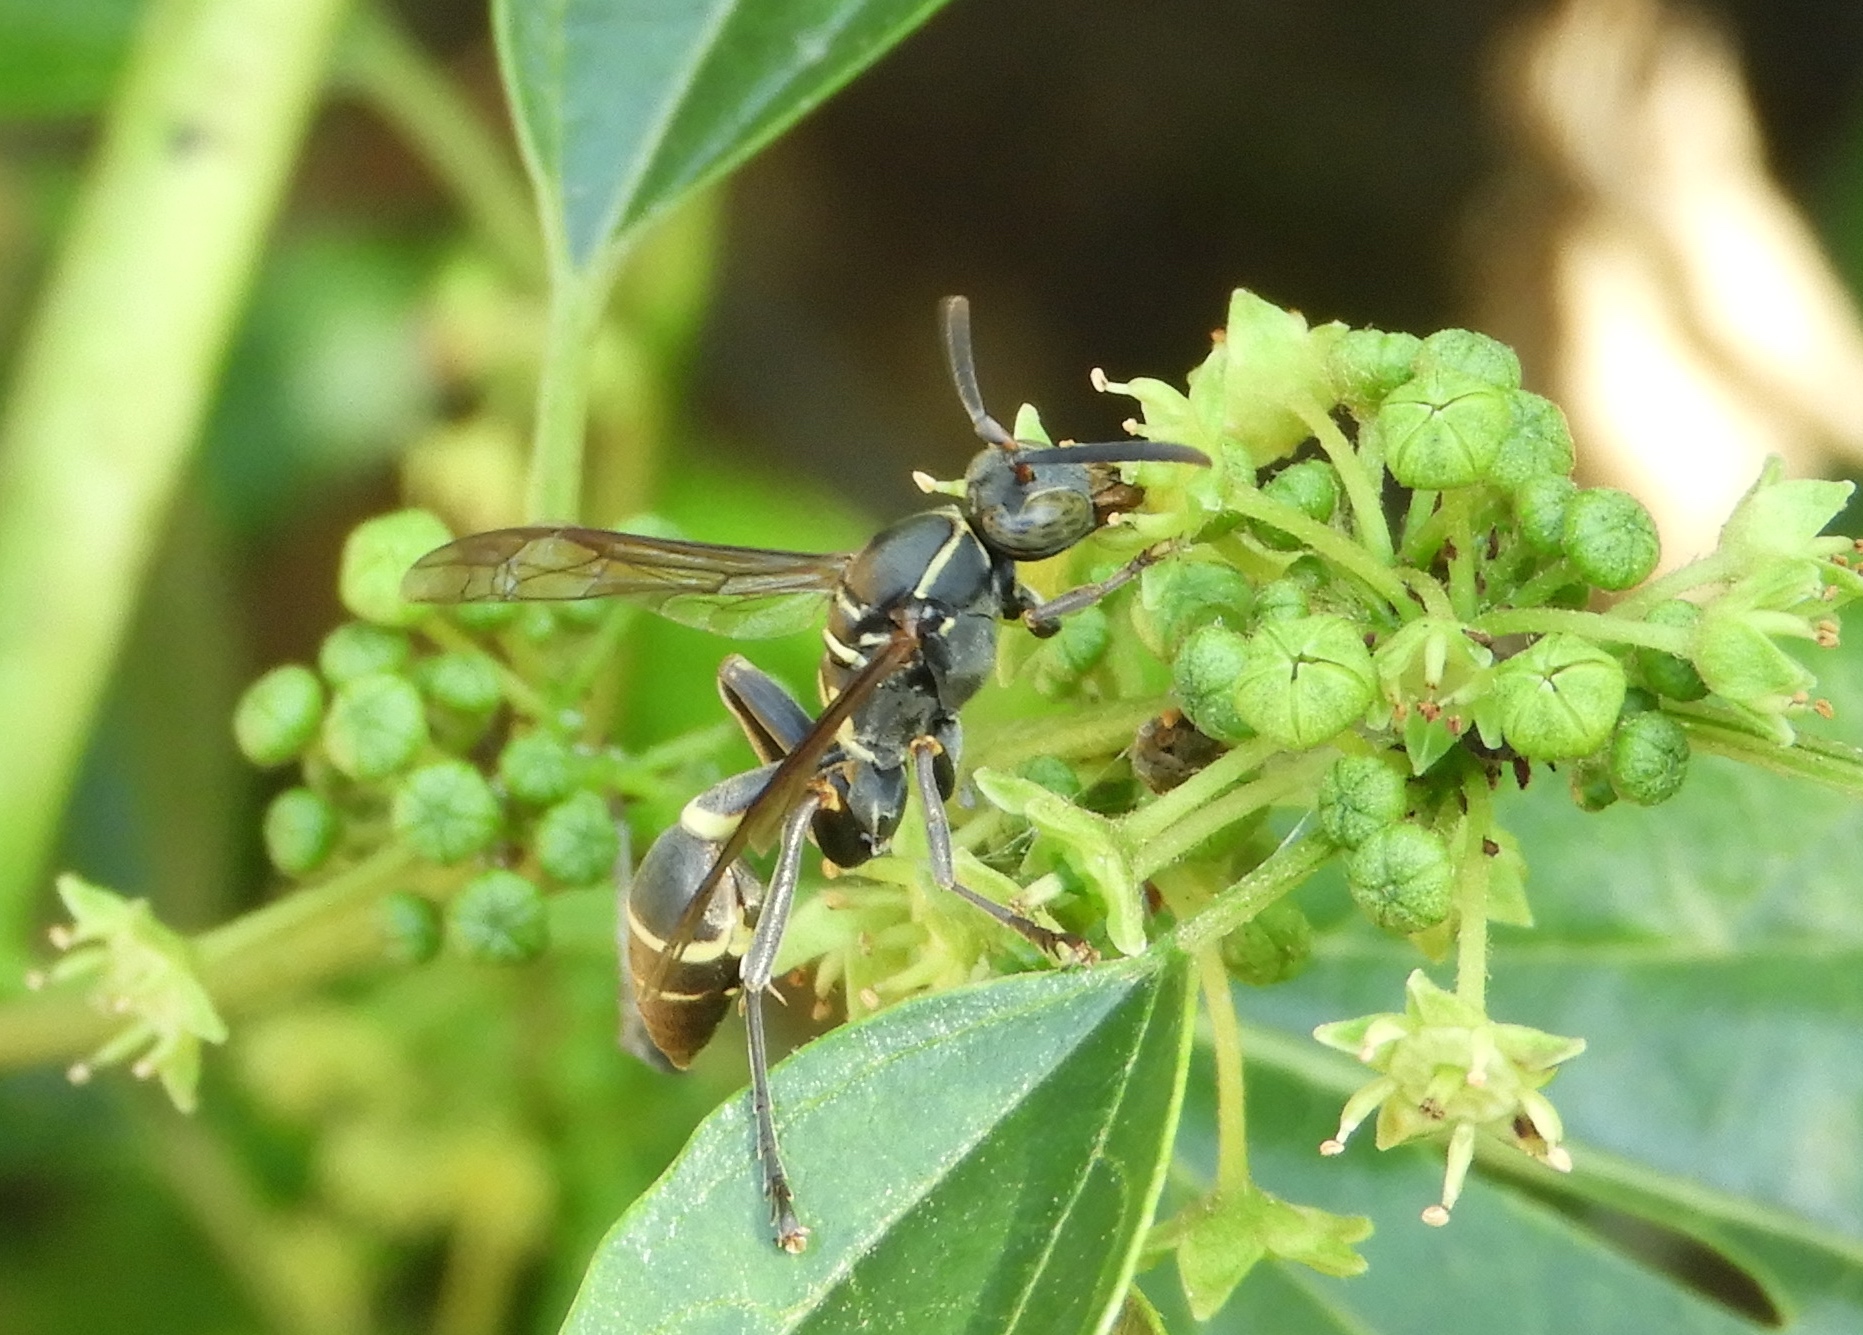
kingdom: Animalia
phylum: Arthropoda
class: Insecta
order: Hymenoptera
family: Vespidae
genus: Mischocyttarus
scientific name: Mischocyttarus
